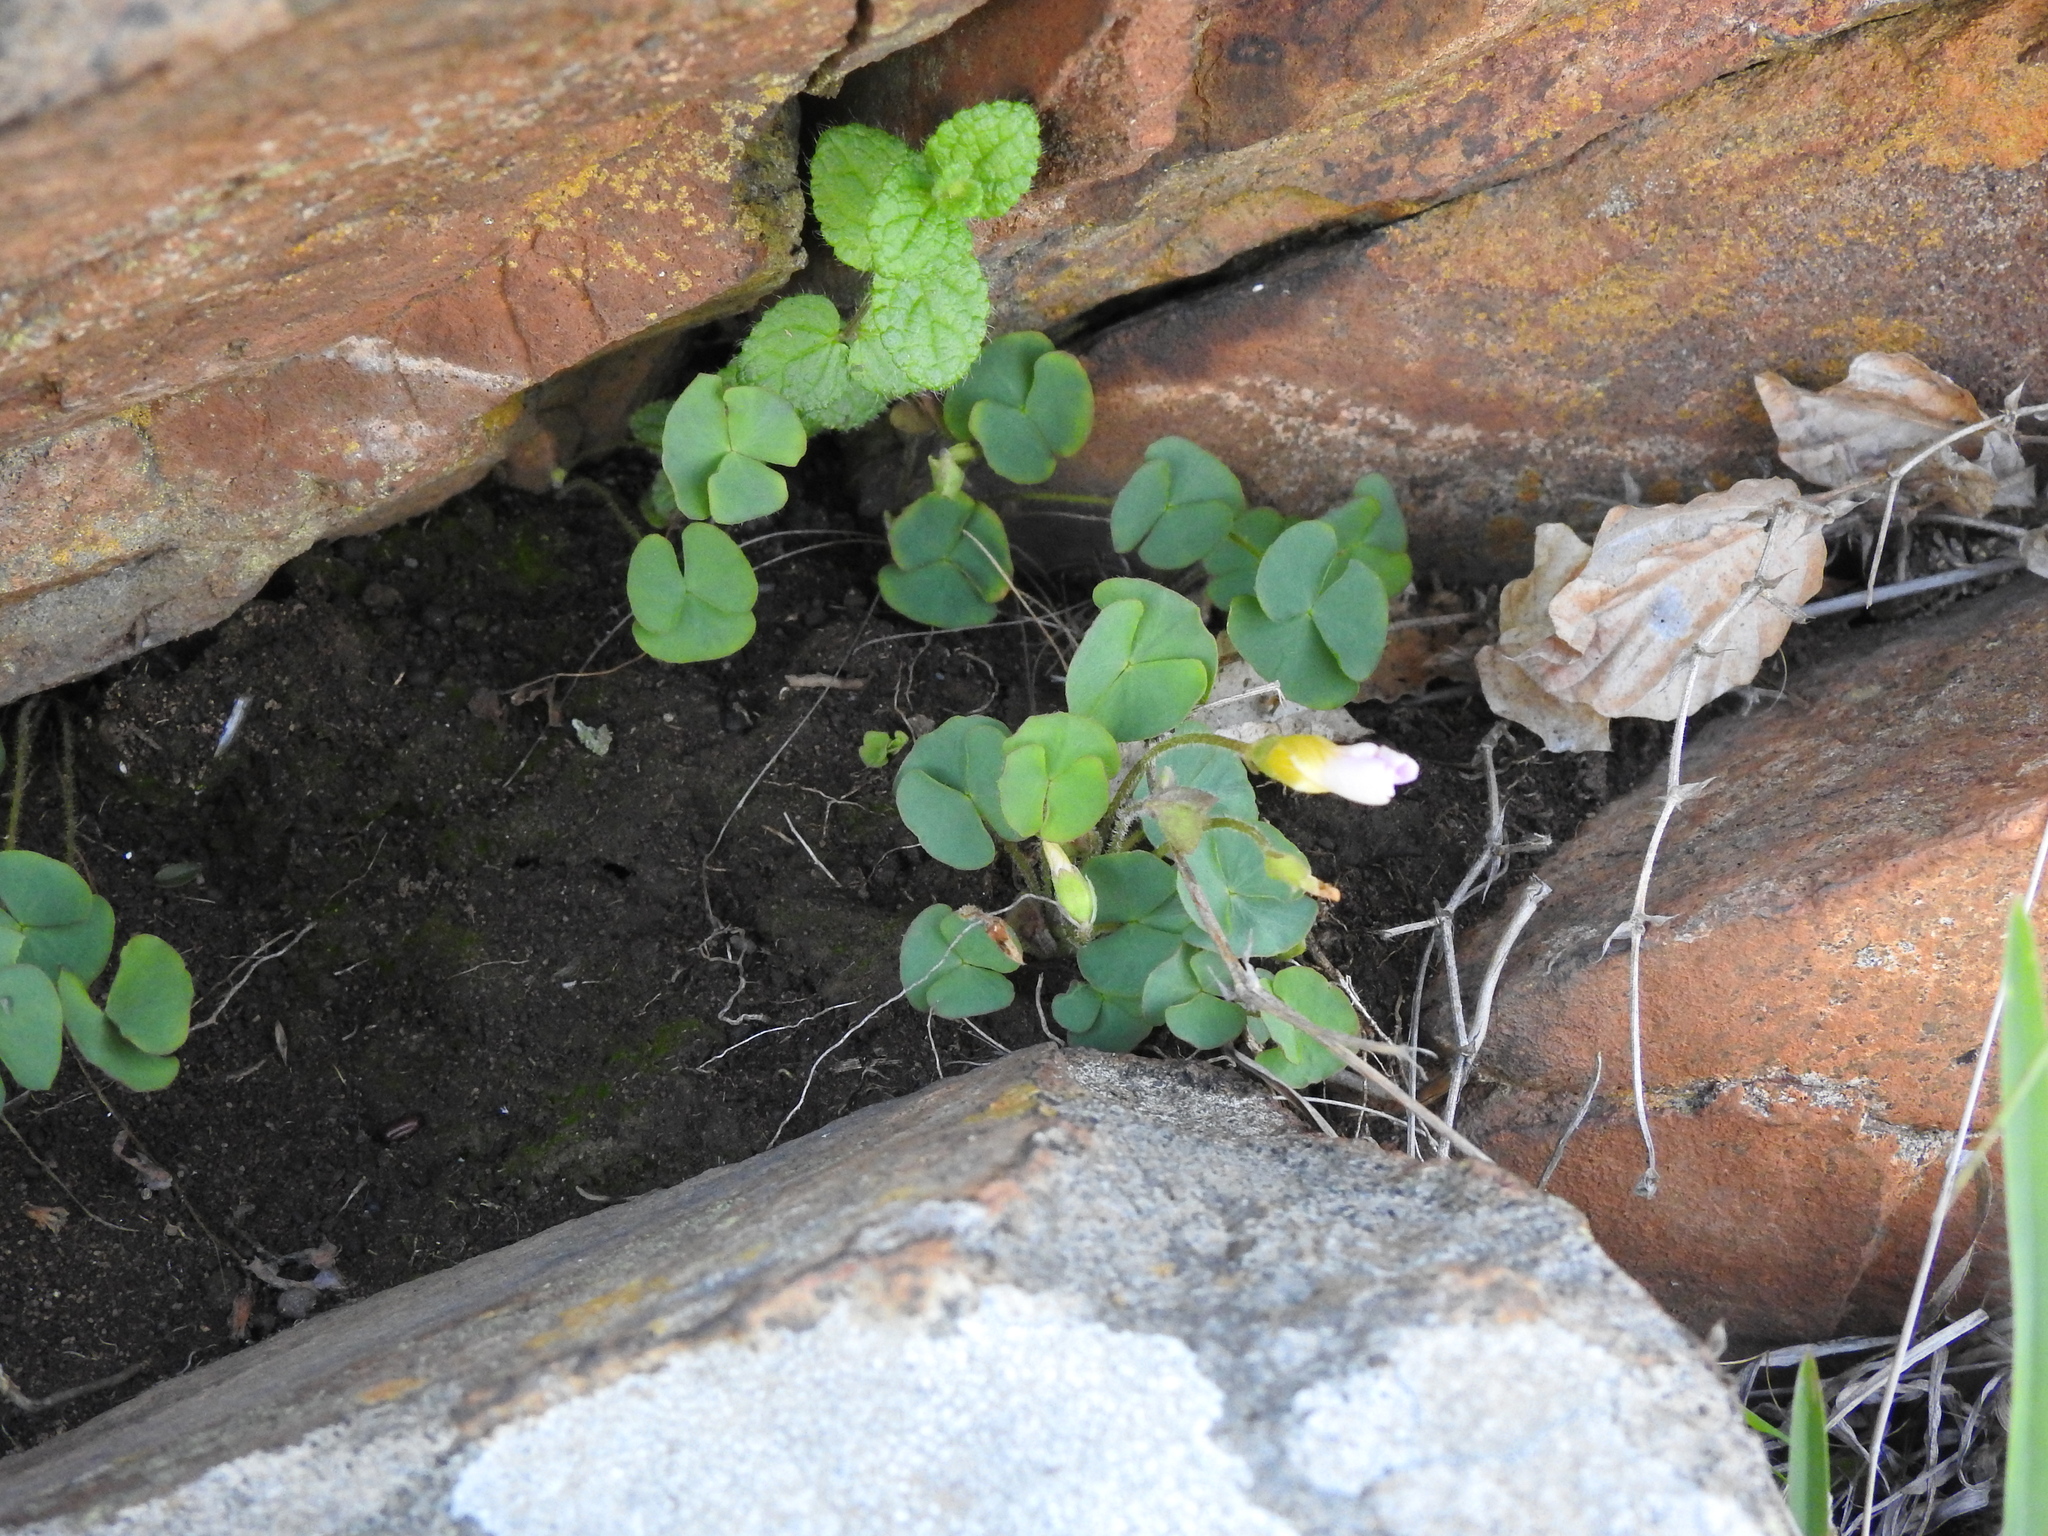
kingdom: Plantae
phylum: Tracheophyta
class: Magnoliopsida
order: Oxalidales
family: Oxalidaceae
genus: Oxalis
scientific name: Oxalis obliquifolia
